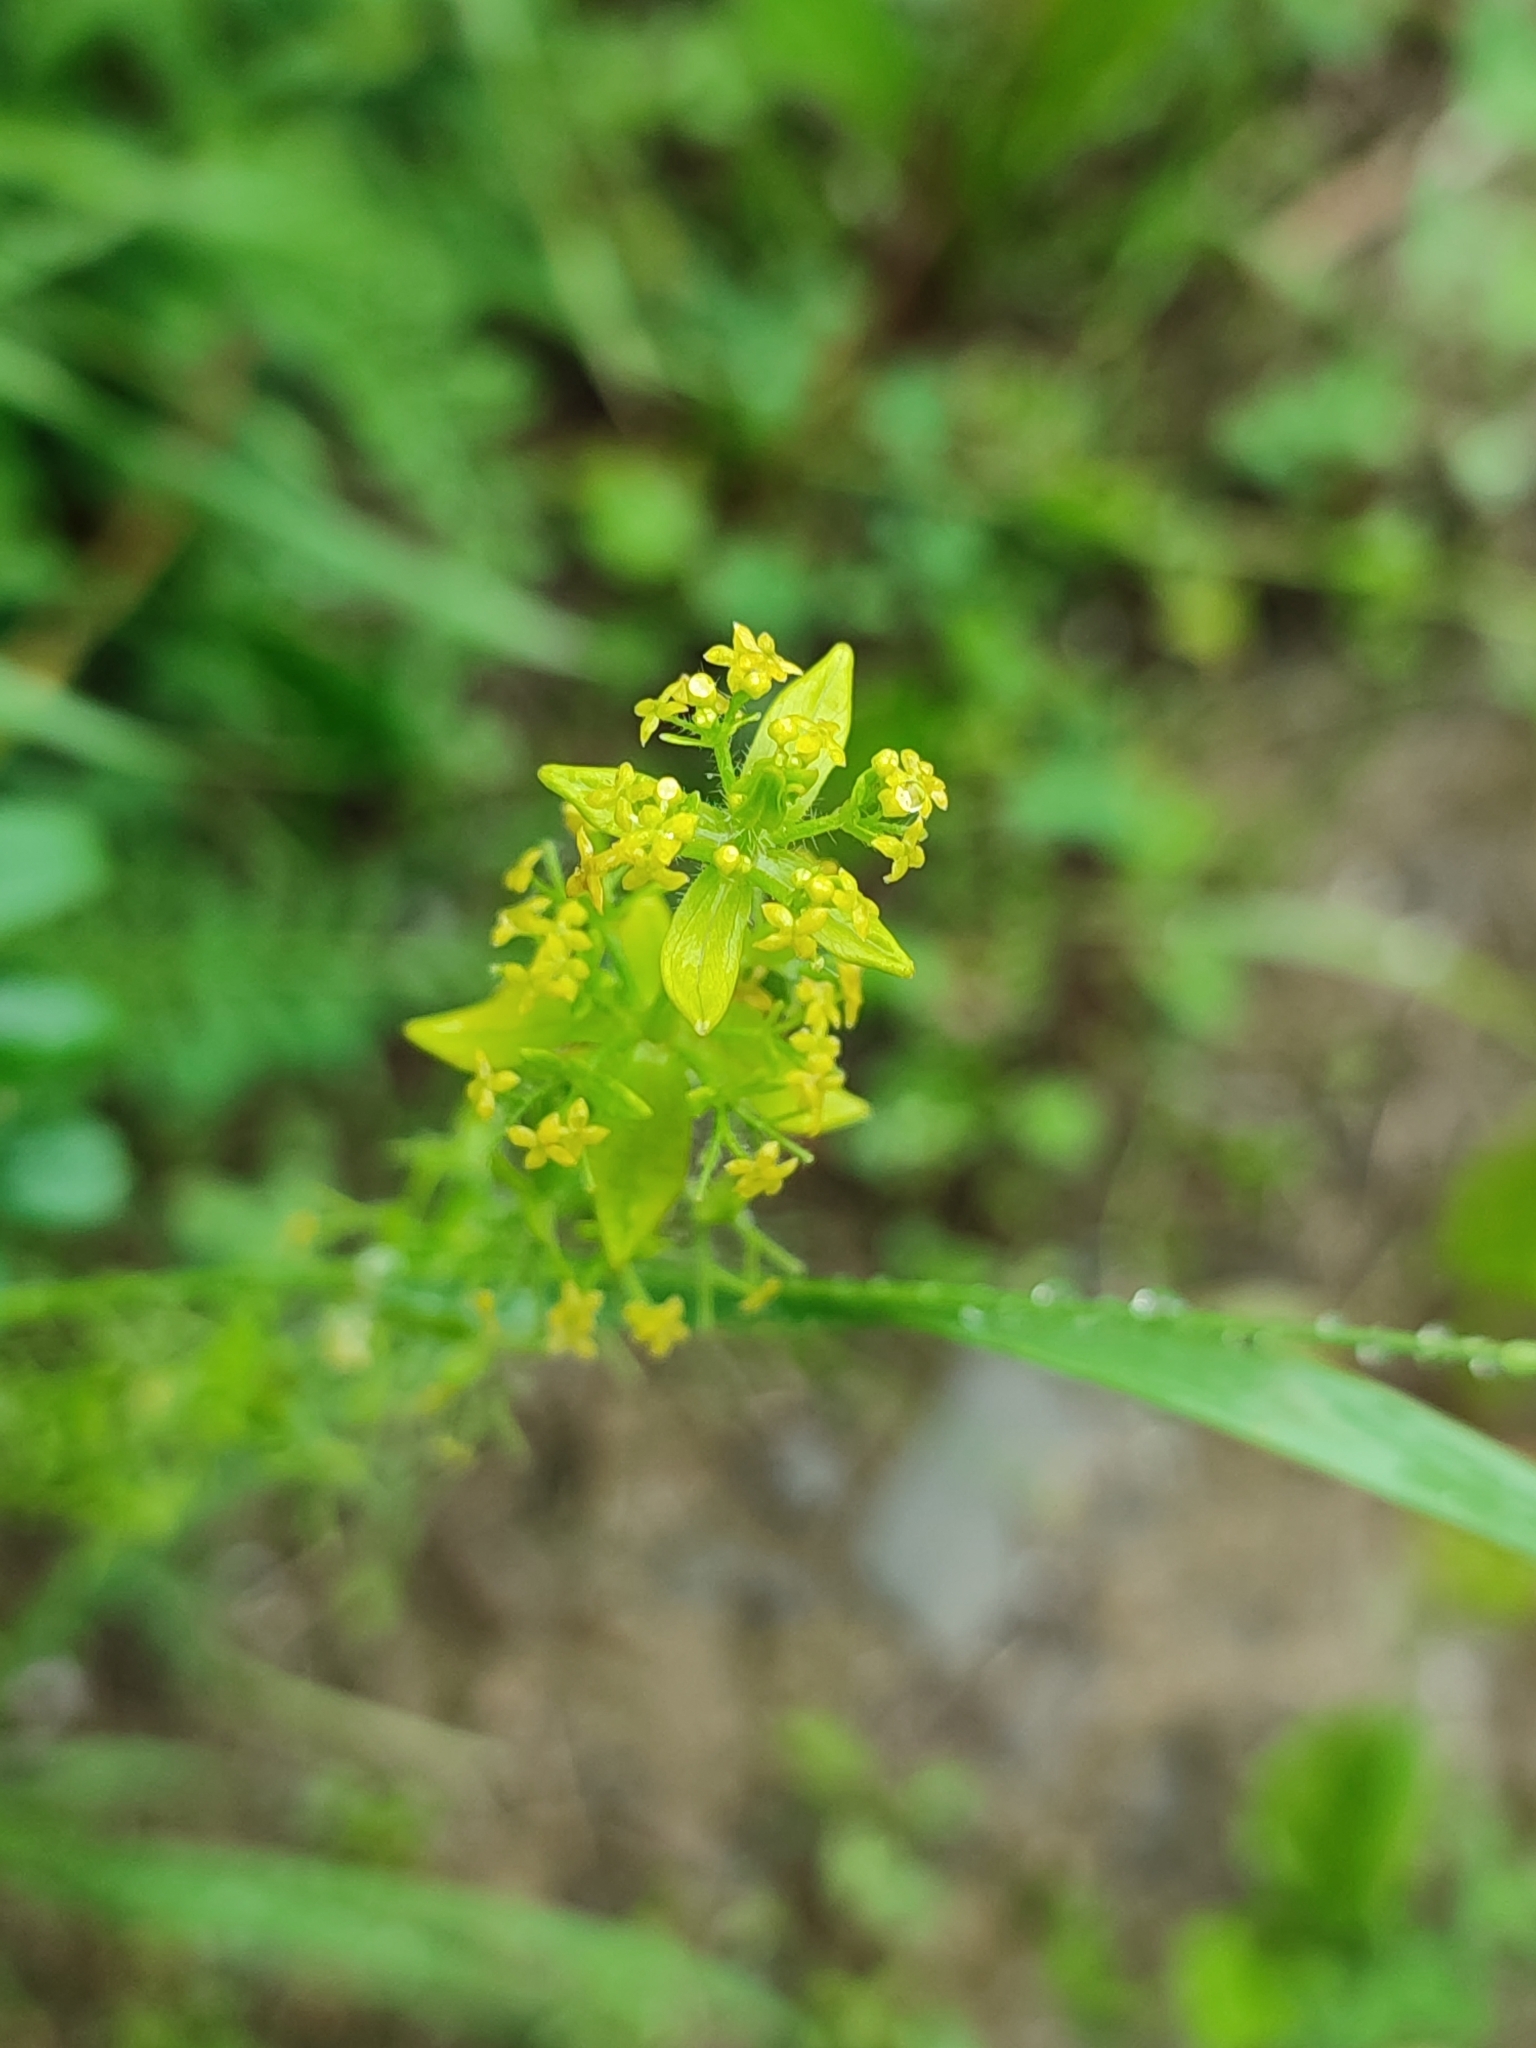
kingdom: Plantae
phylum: Tracheophyta
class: Magnoliopsida
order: Gentianales
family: Rubiaceae
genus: Cruciata
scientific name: Cruciata laevipes
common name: Crosswort
